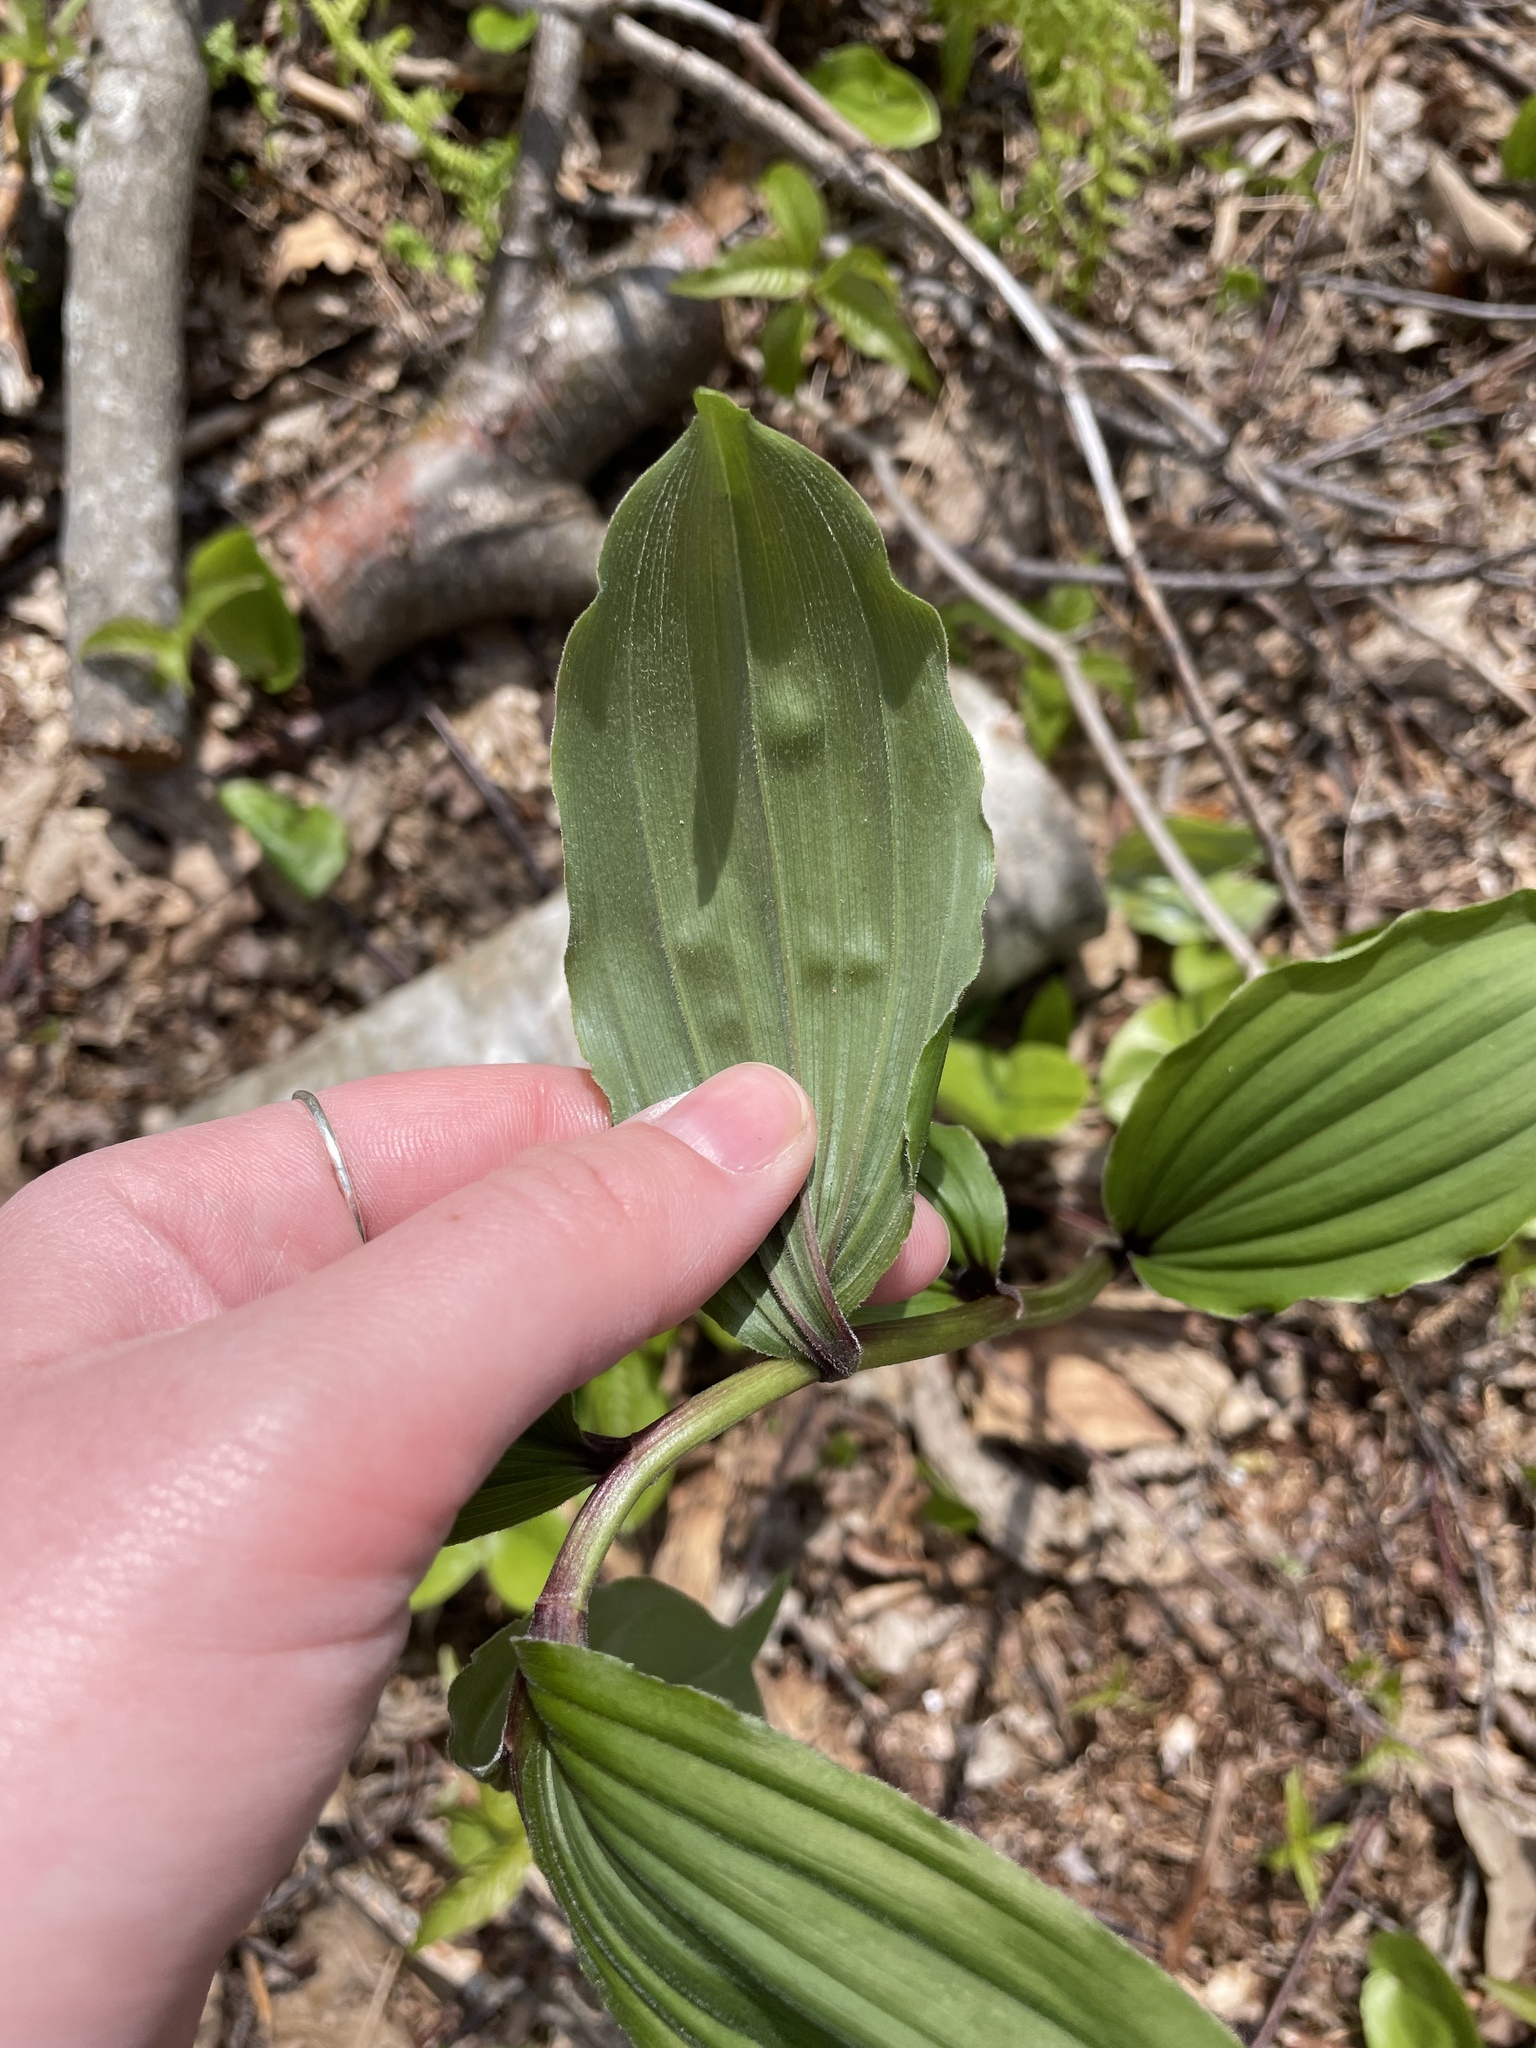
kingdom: Plantae
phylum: Tracheophyta
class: Liliopsida
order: Asparagales
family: Asparagaceae
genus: Maianthemum
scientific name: Maianthemum racemosum
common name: False spikenard
